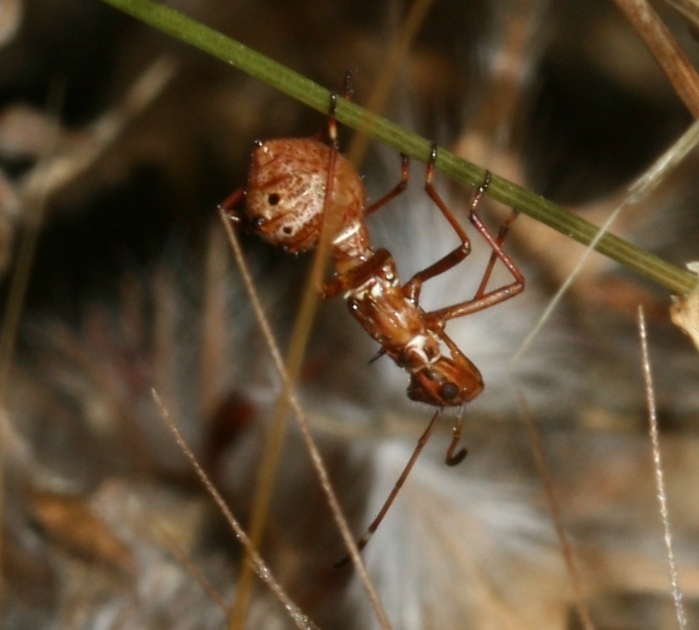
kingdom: Animalia
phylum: Arthropoda
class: Insecta
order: Hemiptera
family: Alydidae
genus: Camptopus
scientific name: Camptopus lateralis
